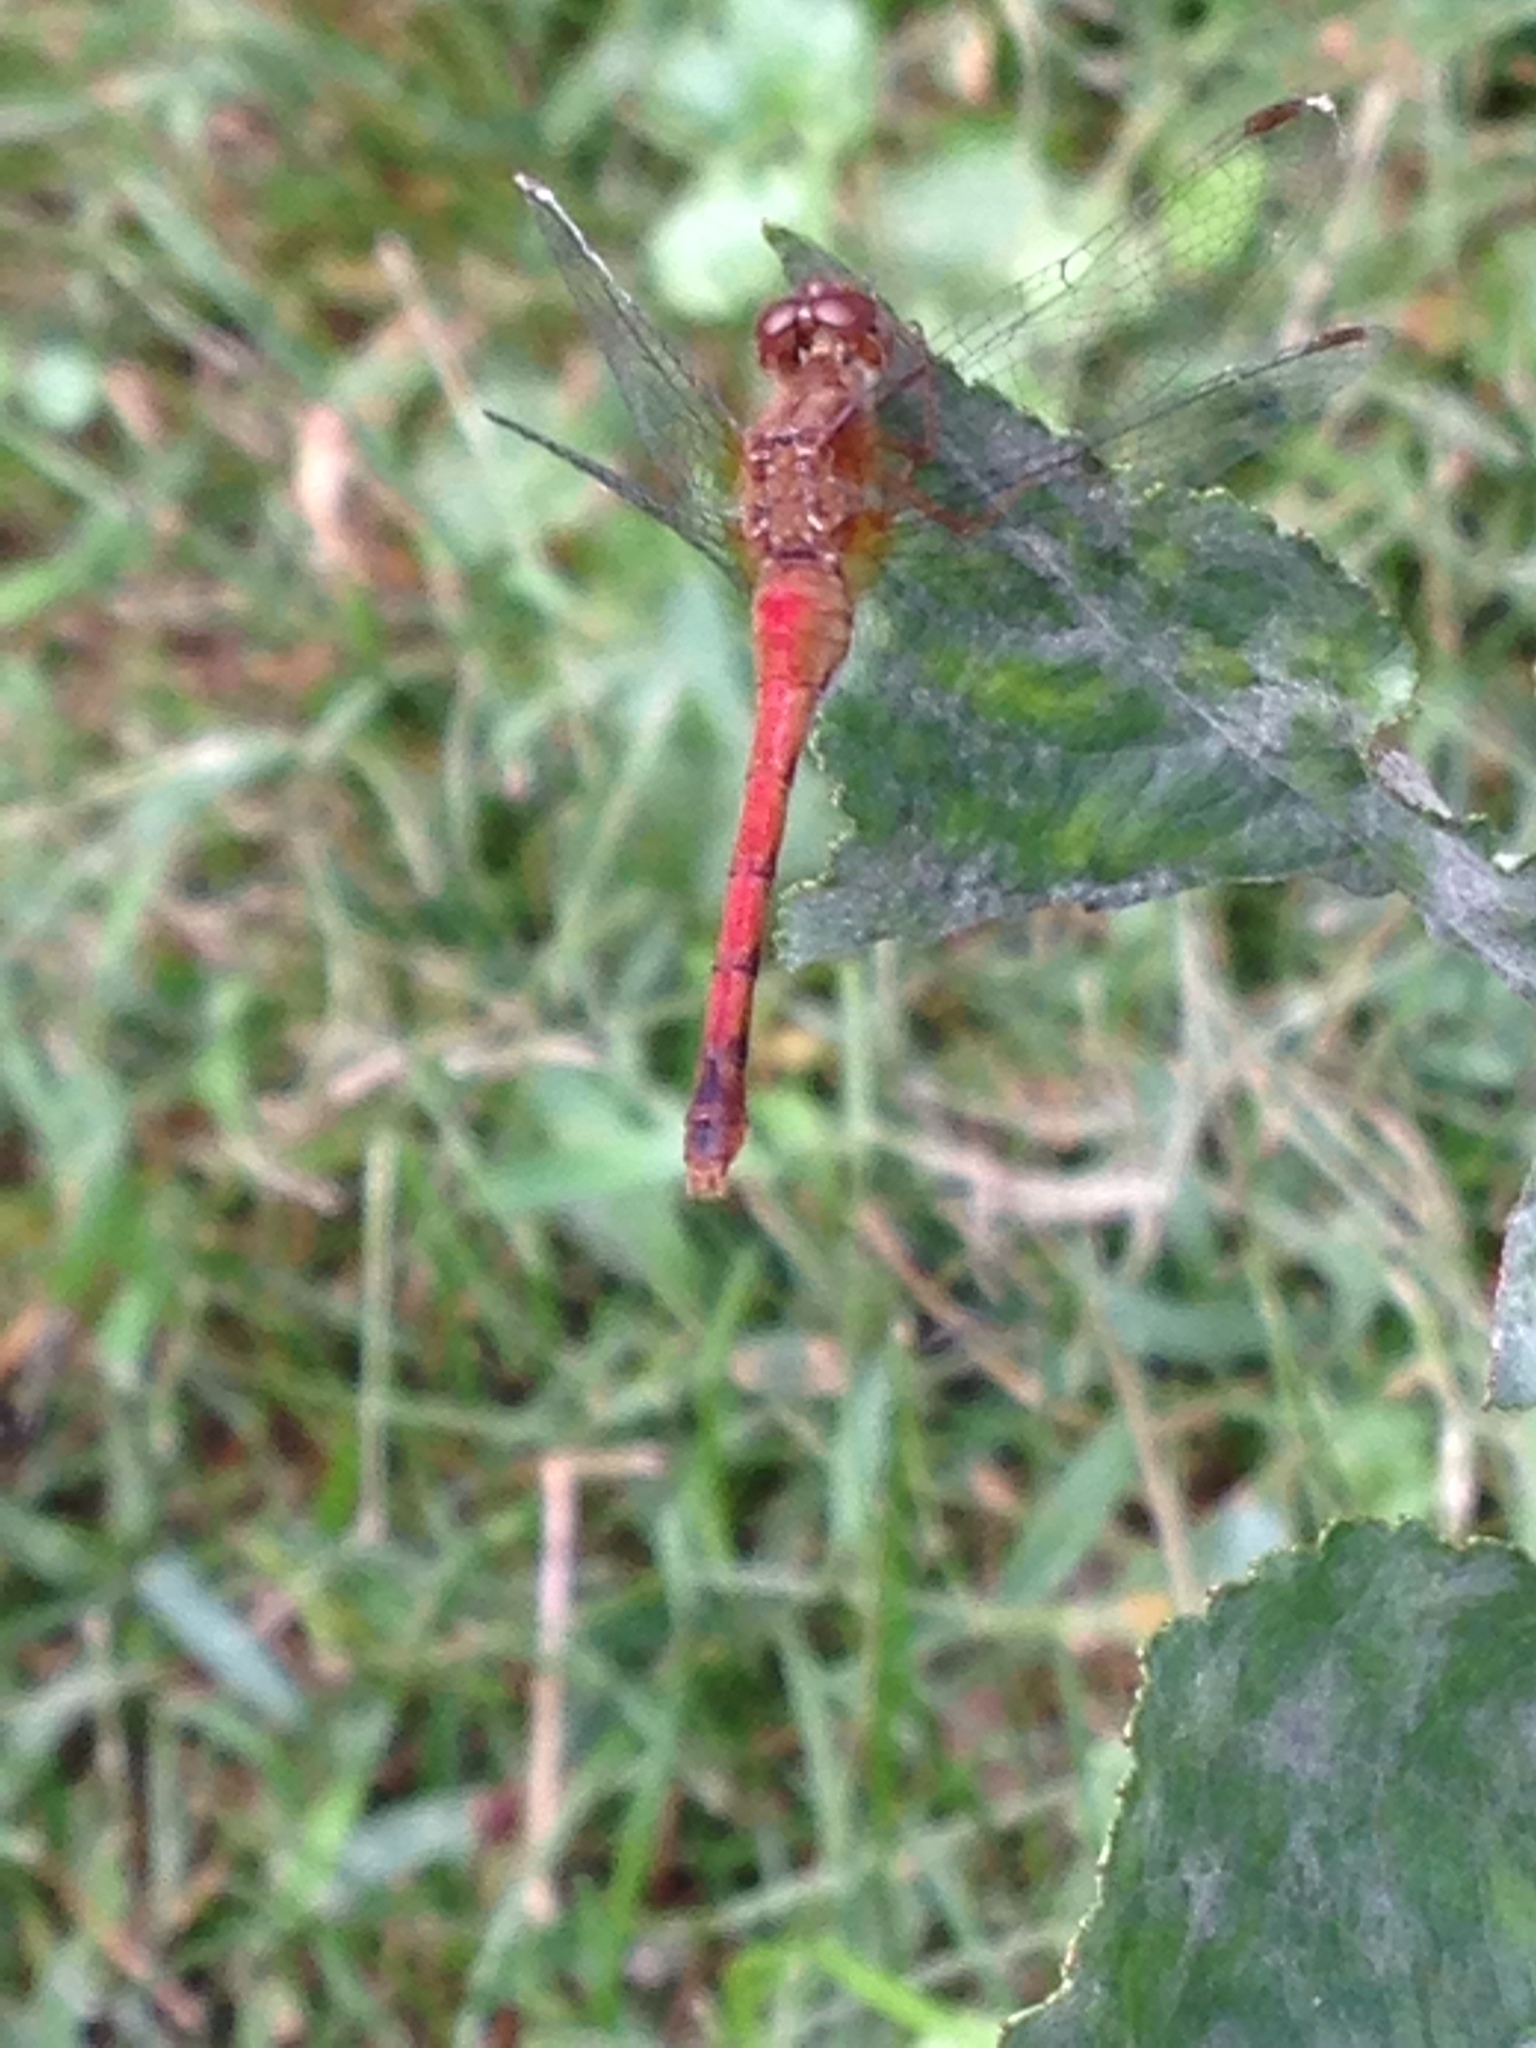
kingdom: Animalia
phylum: Arthropoda
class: Insecta
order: Odonata
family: Libellulidae
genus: Sympetrum
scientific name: Sympetrum vicinum
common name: Autumn meadowhawk
